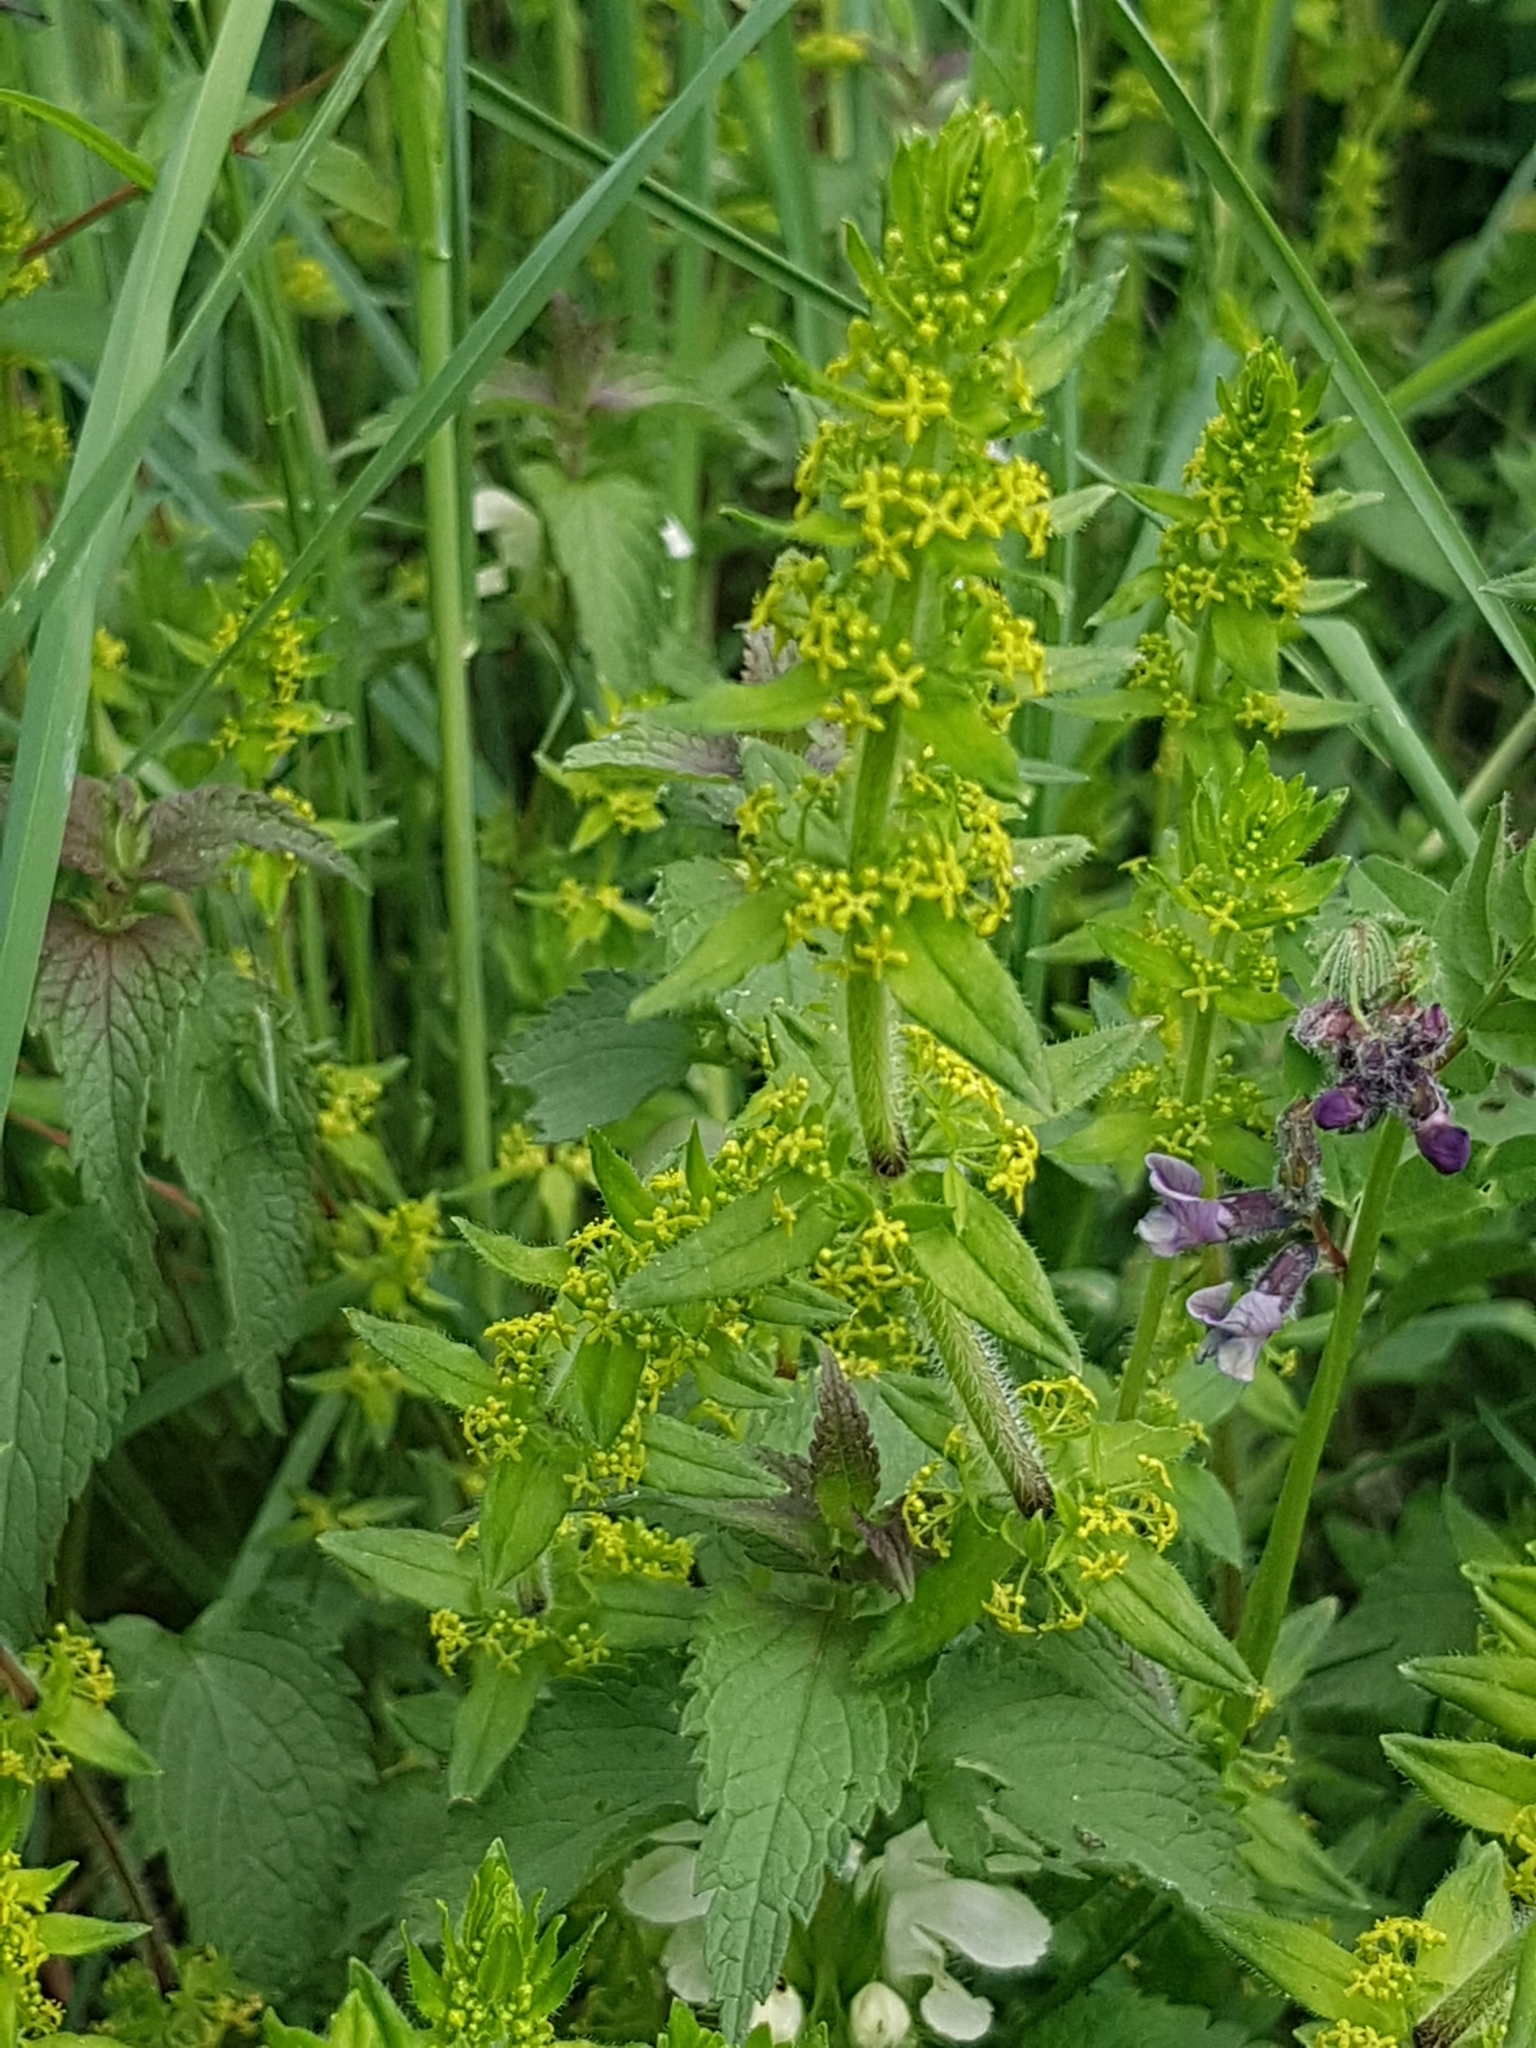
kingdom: Plantae
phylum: Tracheophyta
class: Magnoliopsida
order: Gentianales
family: Rubiaceae
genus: Cruciata
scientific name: Cruciata laevipes
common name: Crosswort
